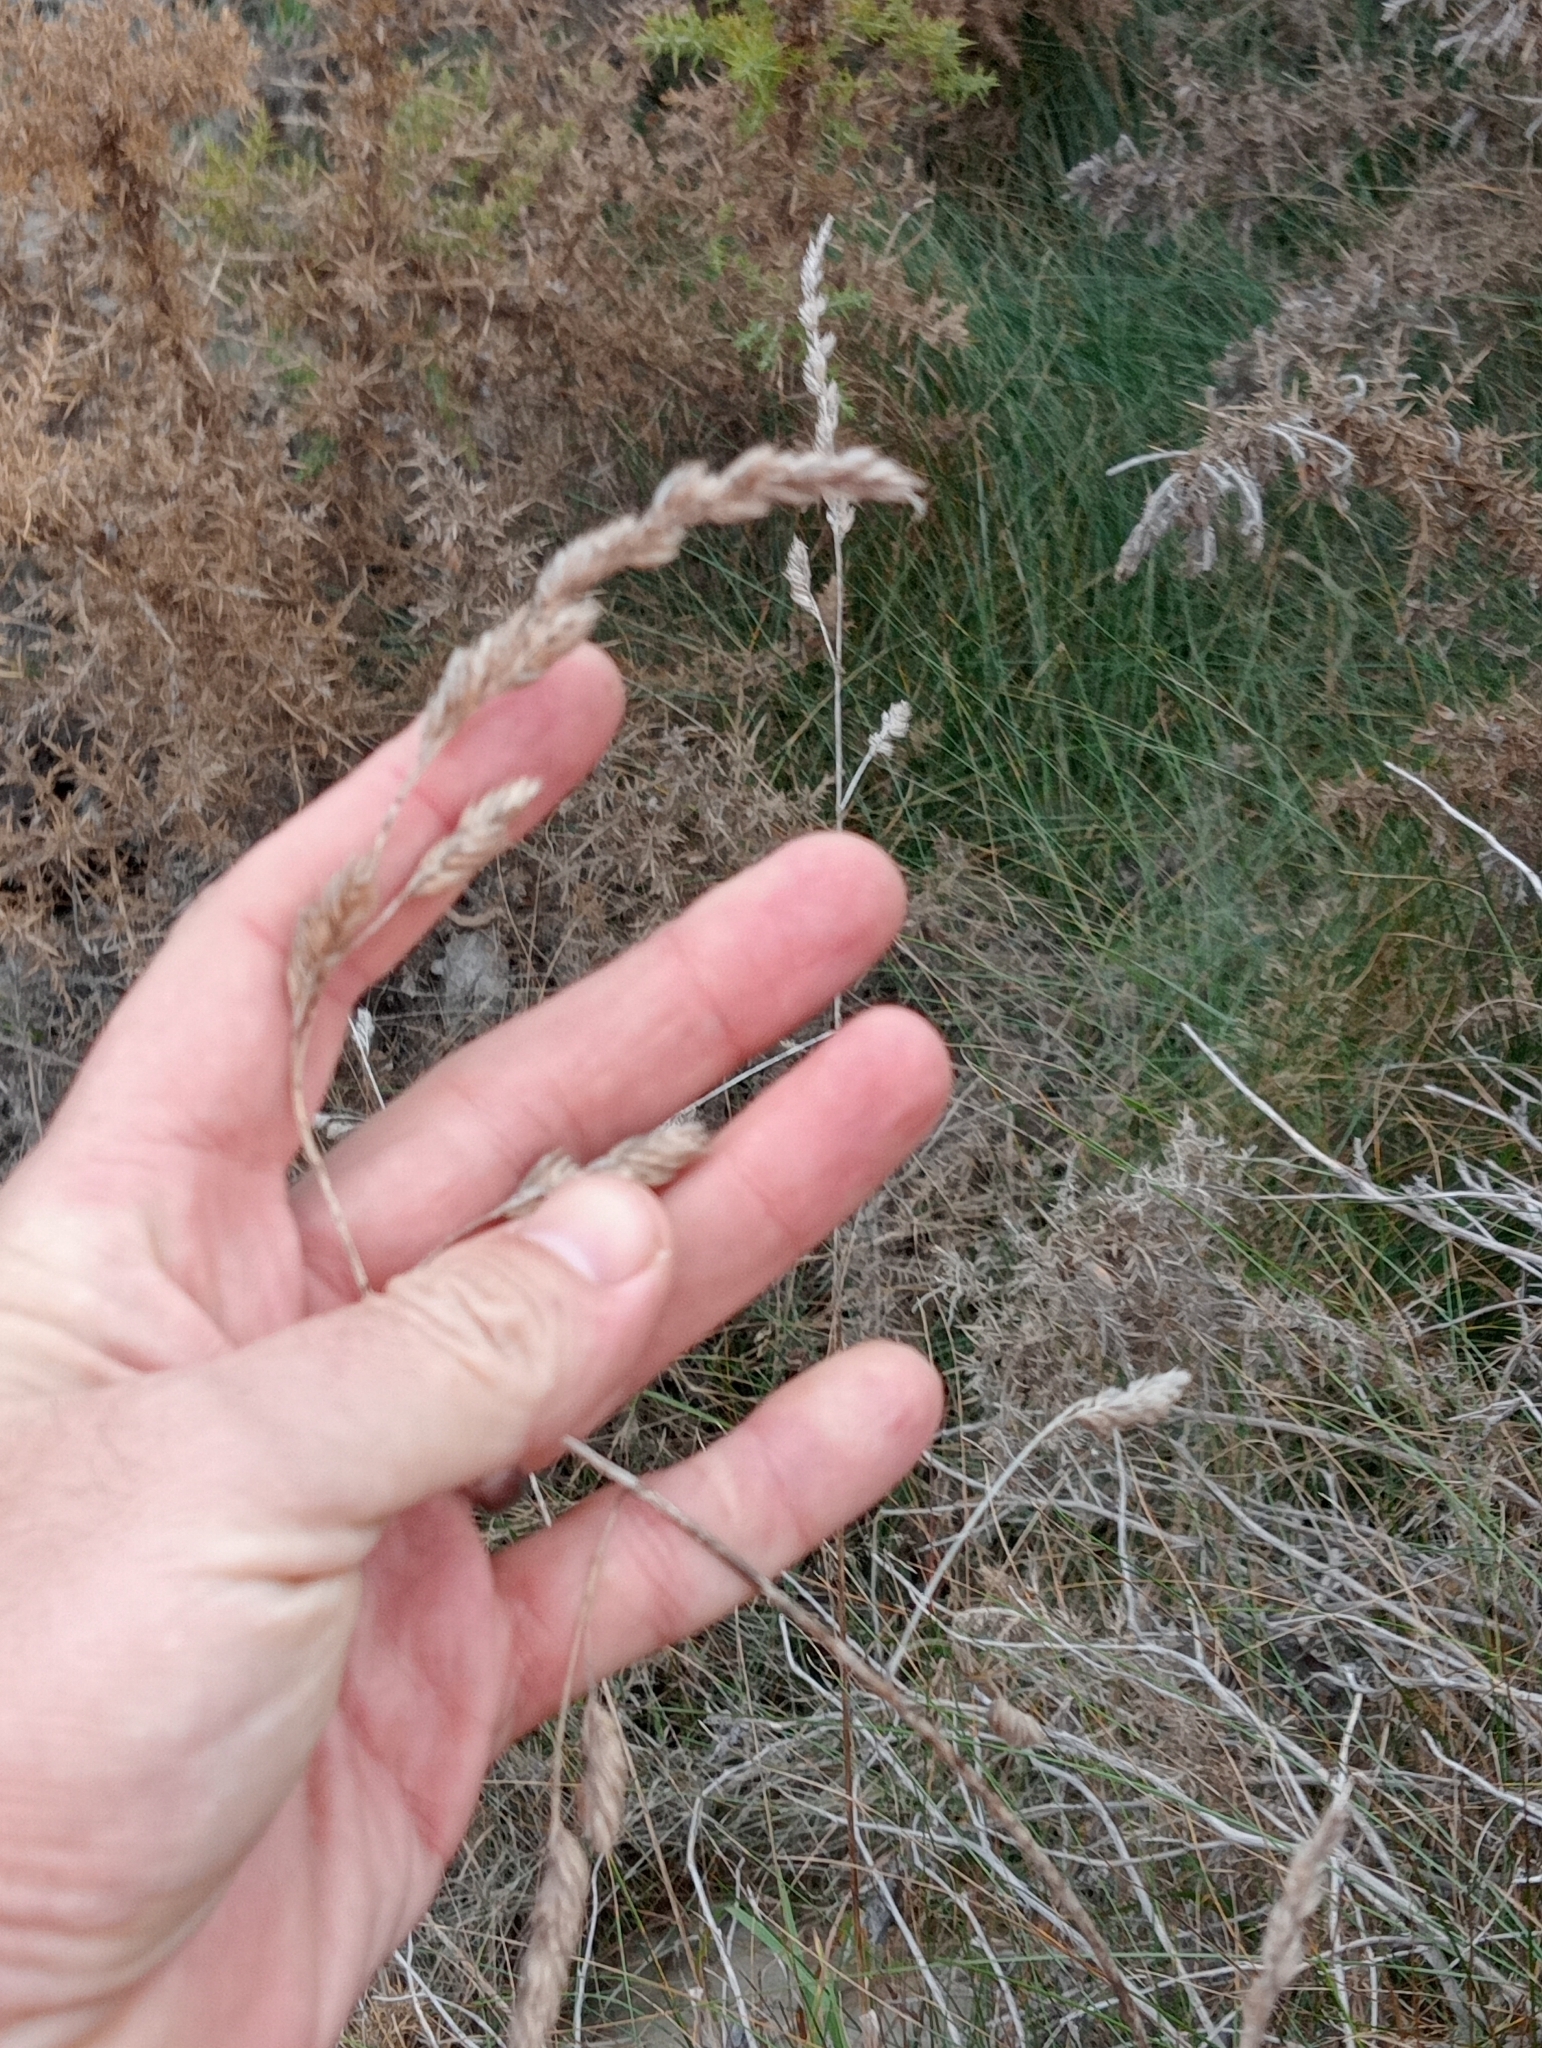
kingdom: Plantae
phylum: Tracheophyta
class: Liliopsida
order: Poales
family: Poaceae
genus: Dactylis
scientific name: Dactylis glomerata
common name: Orchardgrass
